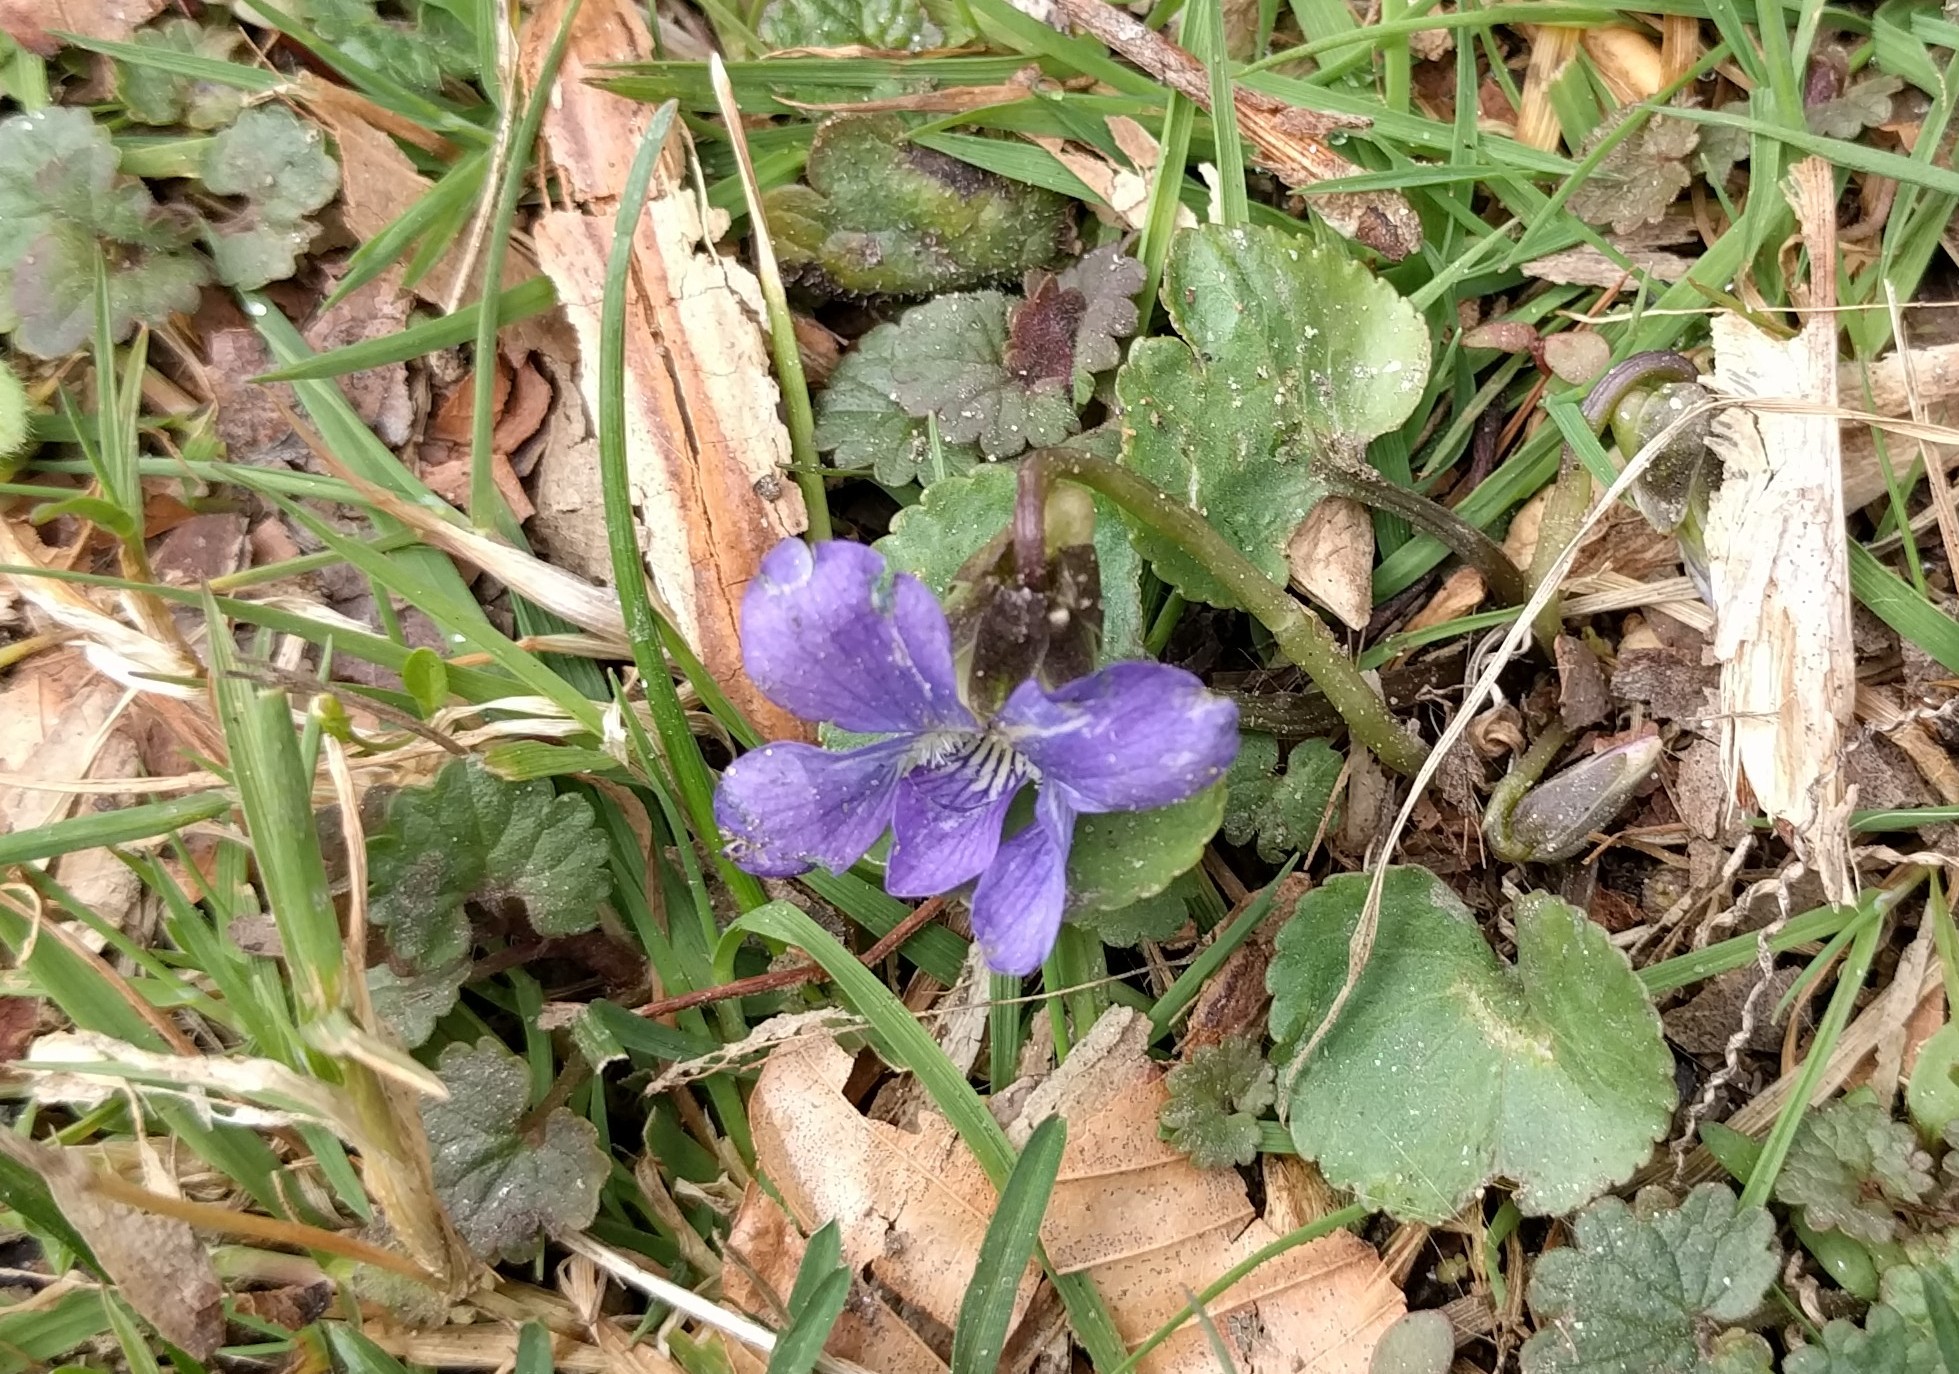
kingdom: Plantae
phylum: Tracheophyta
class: Magnoliopsida
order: Malpighiales
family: Violaceae
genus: Viola
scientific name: Viola sororia
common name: Dooryard violet
